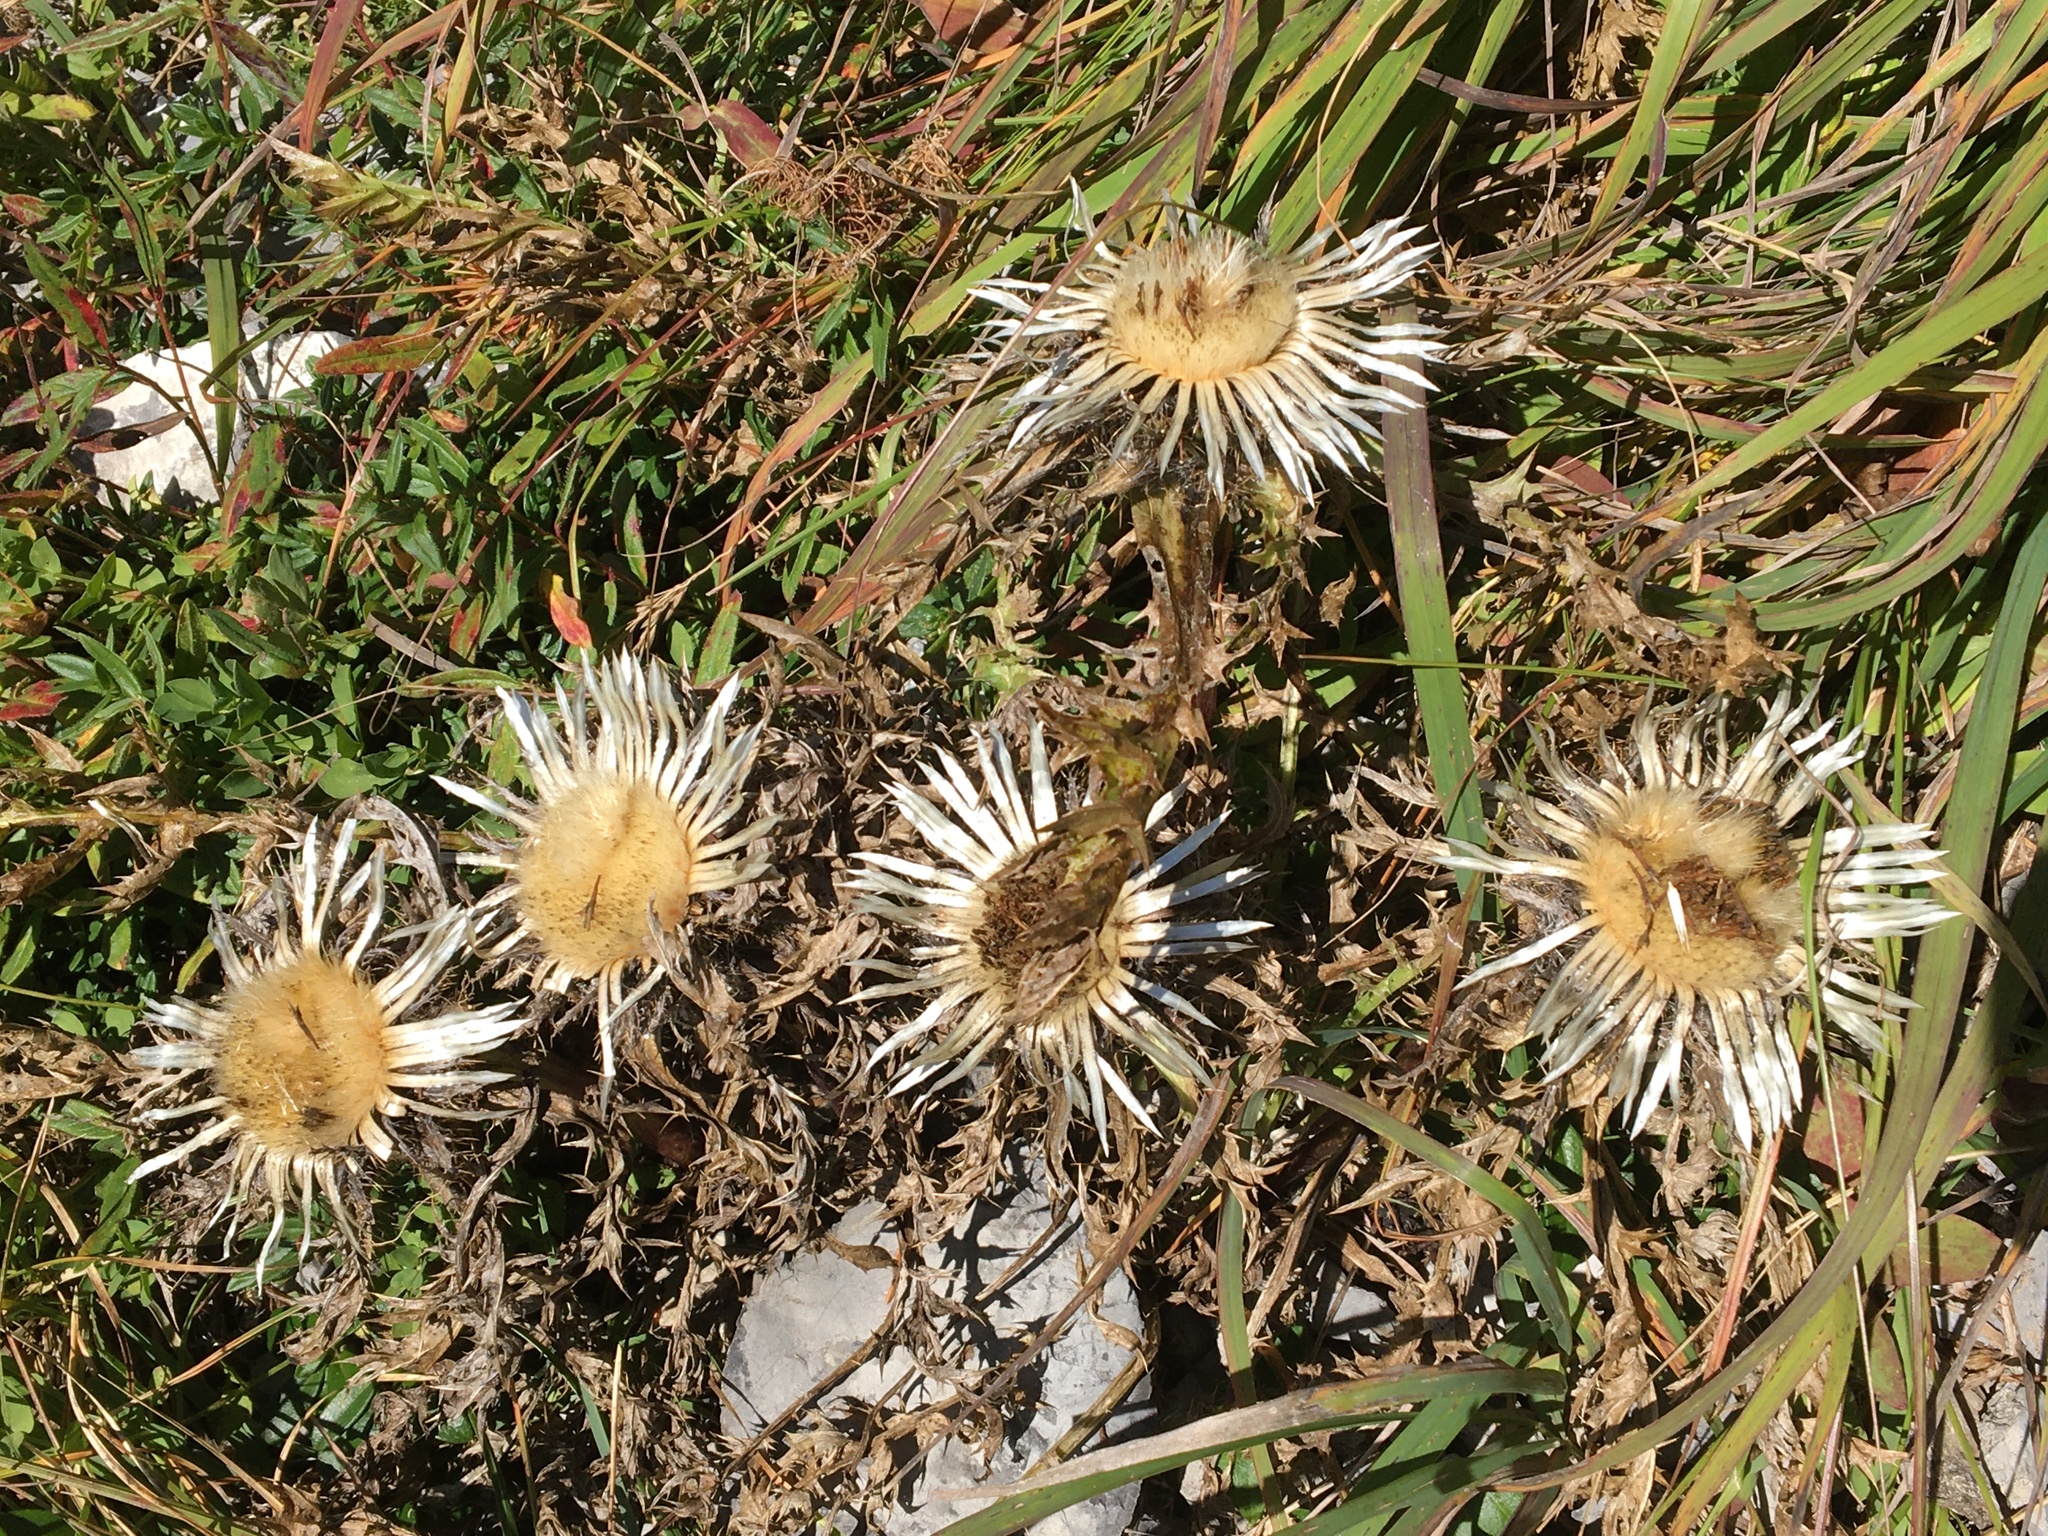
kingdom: Plantae
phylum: Tracheophyta
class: Magnoliopsida
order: Asterales
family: Asteraceae
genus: Carlina
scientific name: Carlina acaulis
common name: Stemless carline thistle
